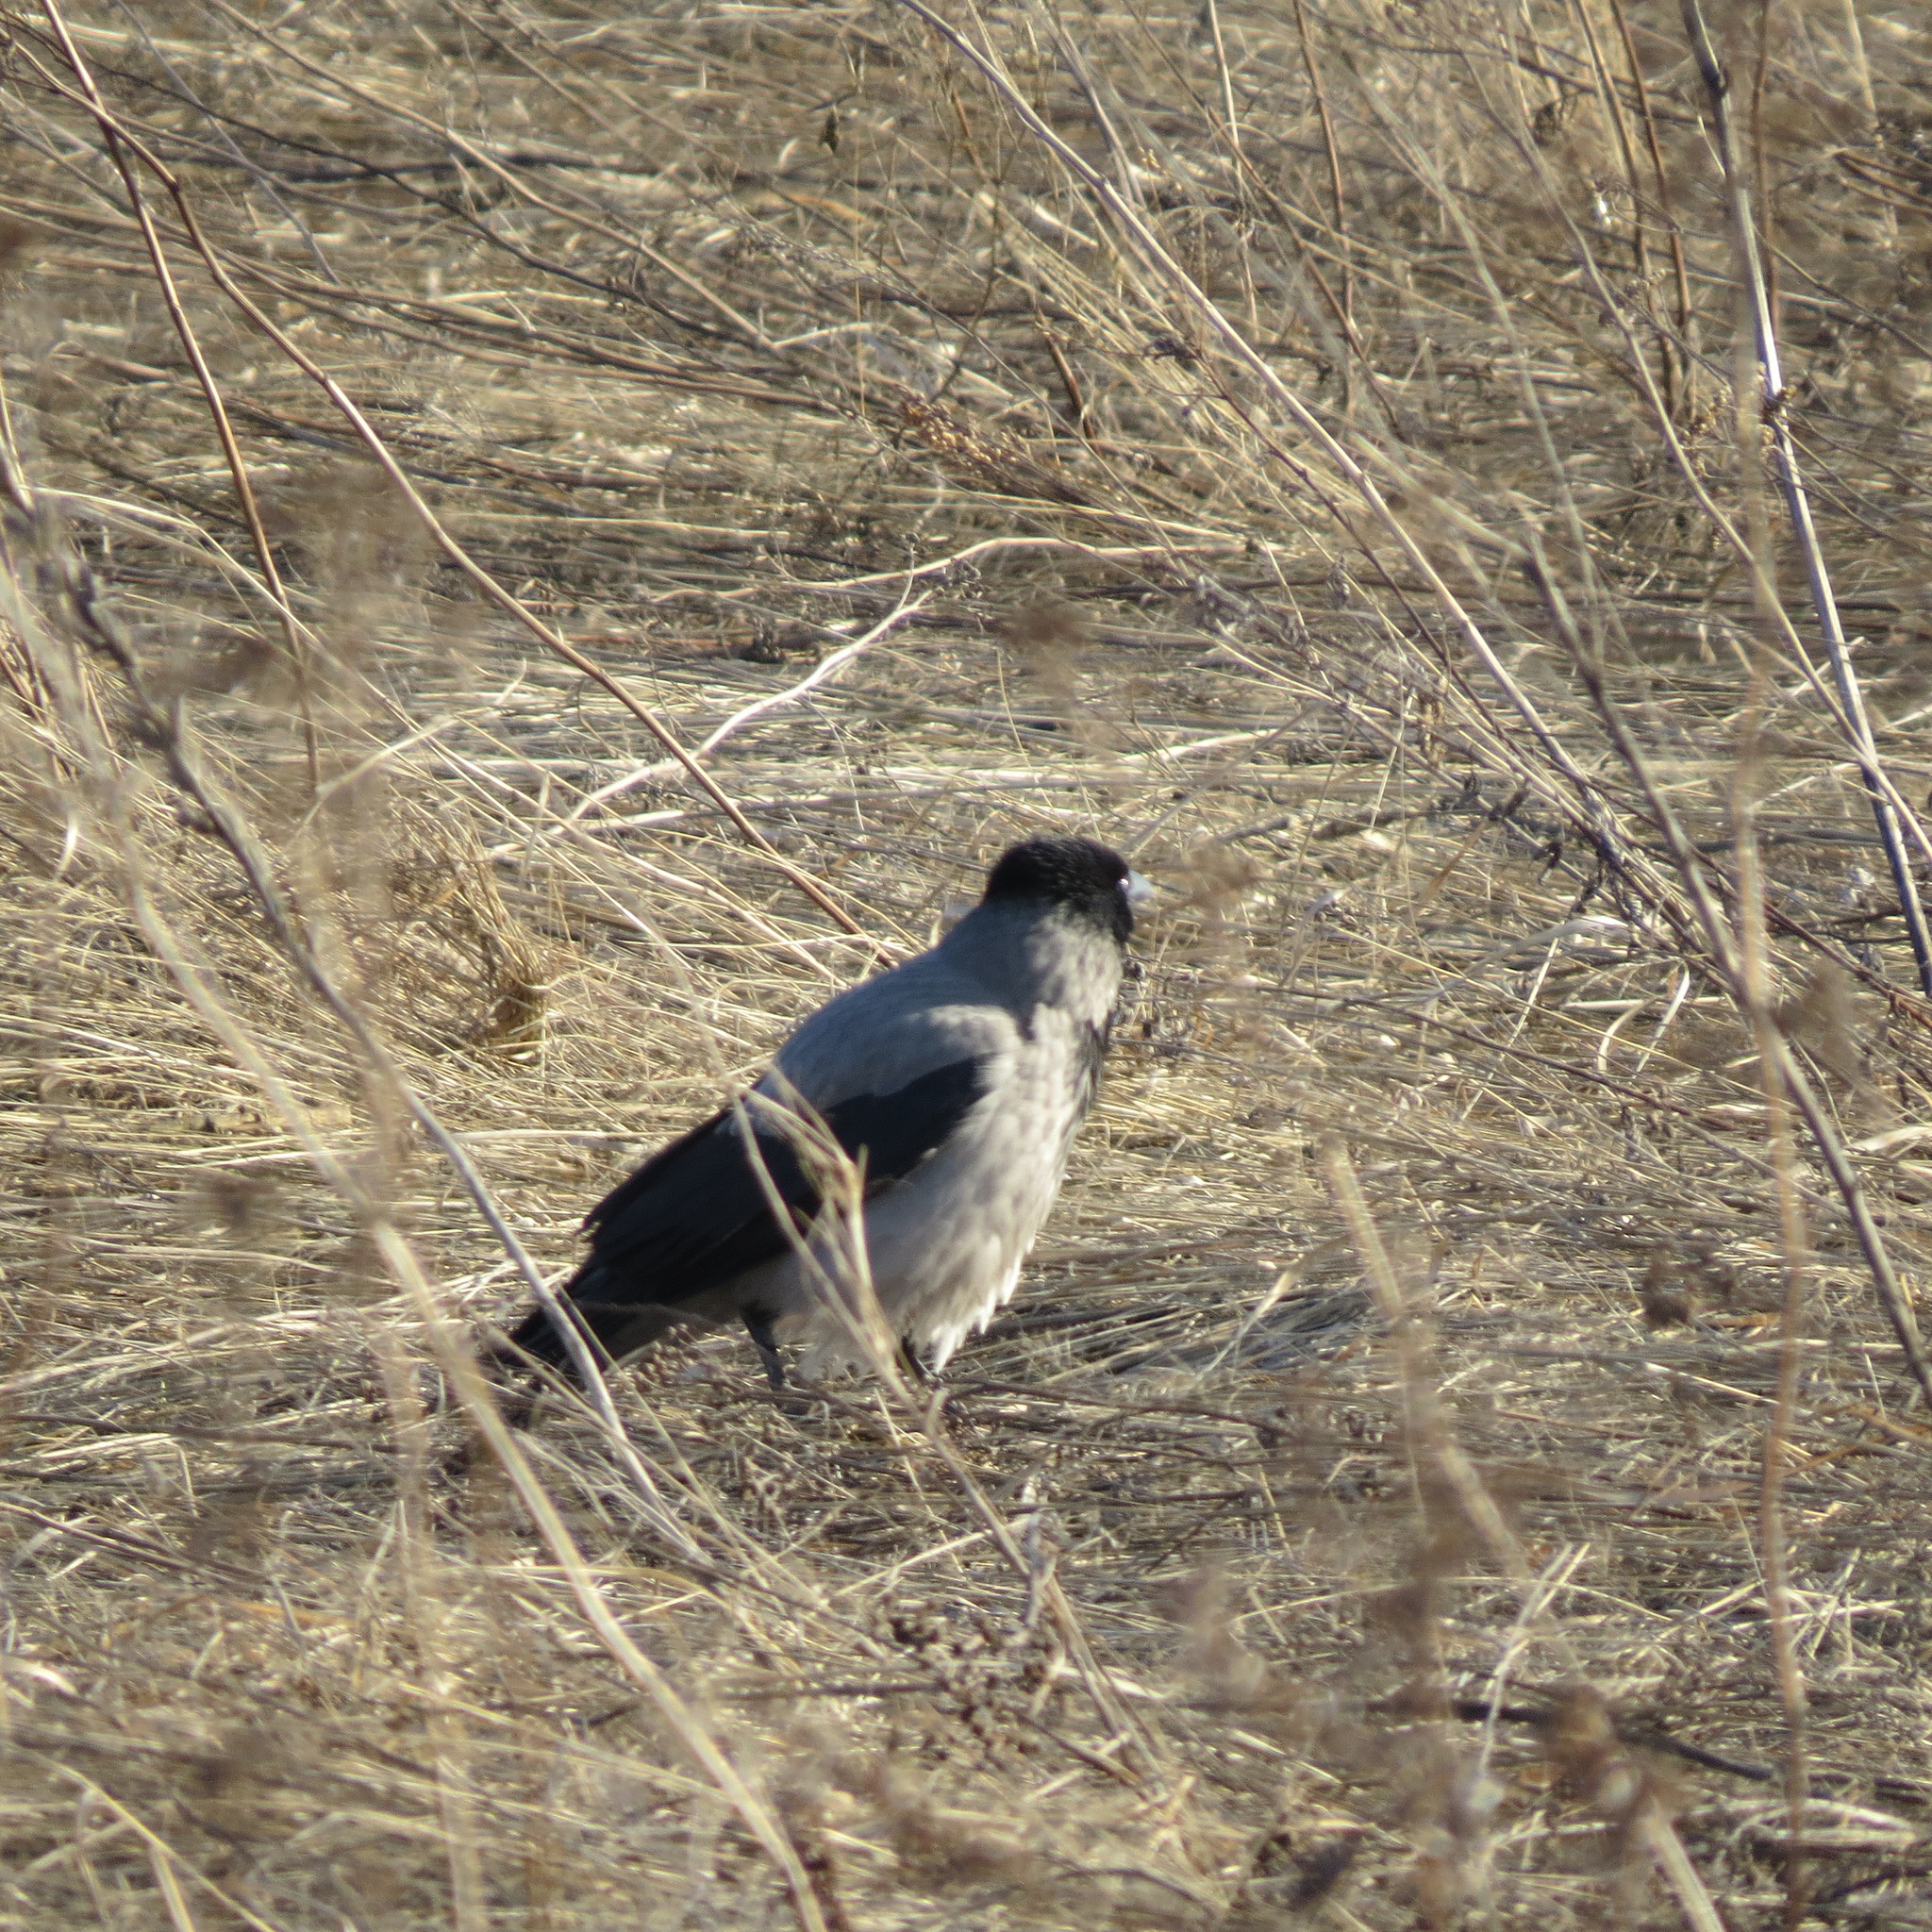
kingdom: Animalia
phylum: Chordata
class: Aves
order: Passeriformes
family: Corvidae
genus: Corvus
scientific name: Corvus cornix
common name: Hooded crow
